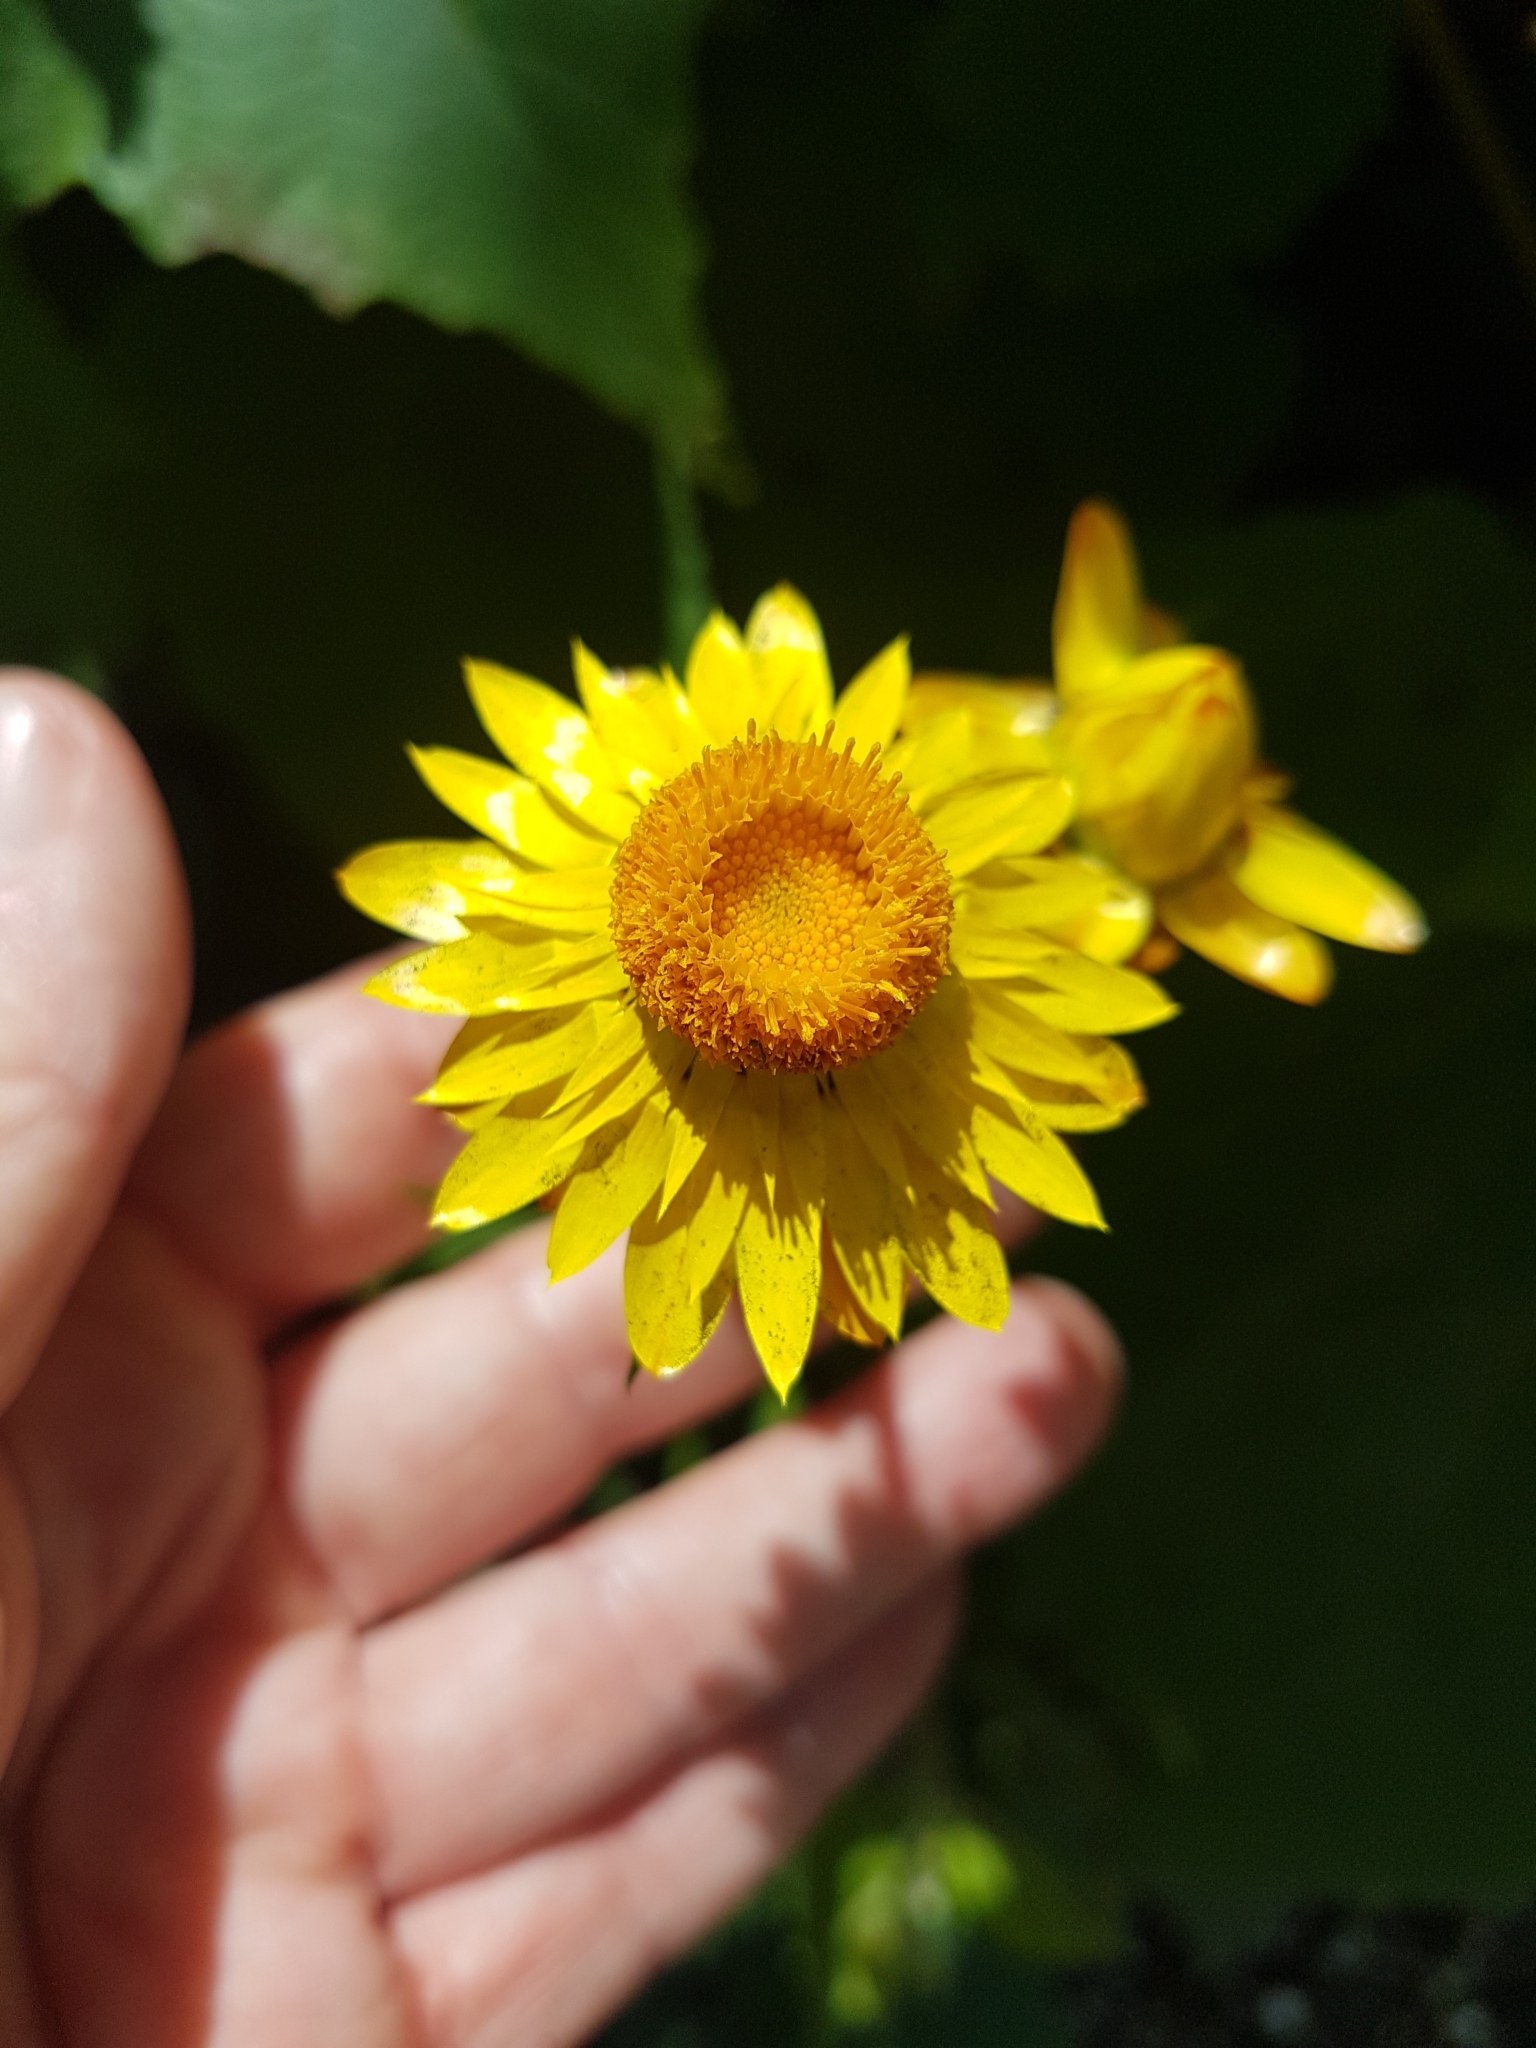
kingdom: Plantae
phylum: Tracheophyta
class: Magnoliopsida
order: Asterales
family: Asteraceae
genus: Xerochrysum
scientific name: Xerochrysum bracteatum
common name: Bracted strawflower
